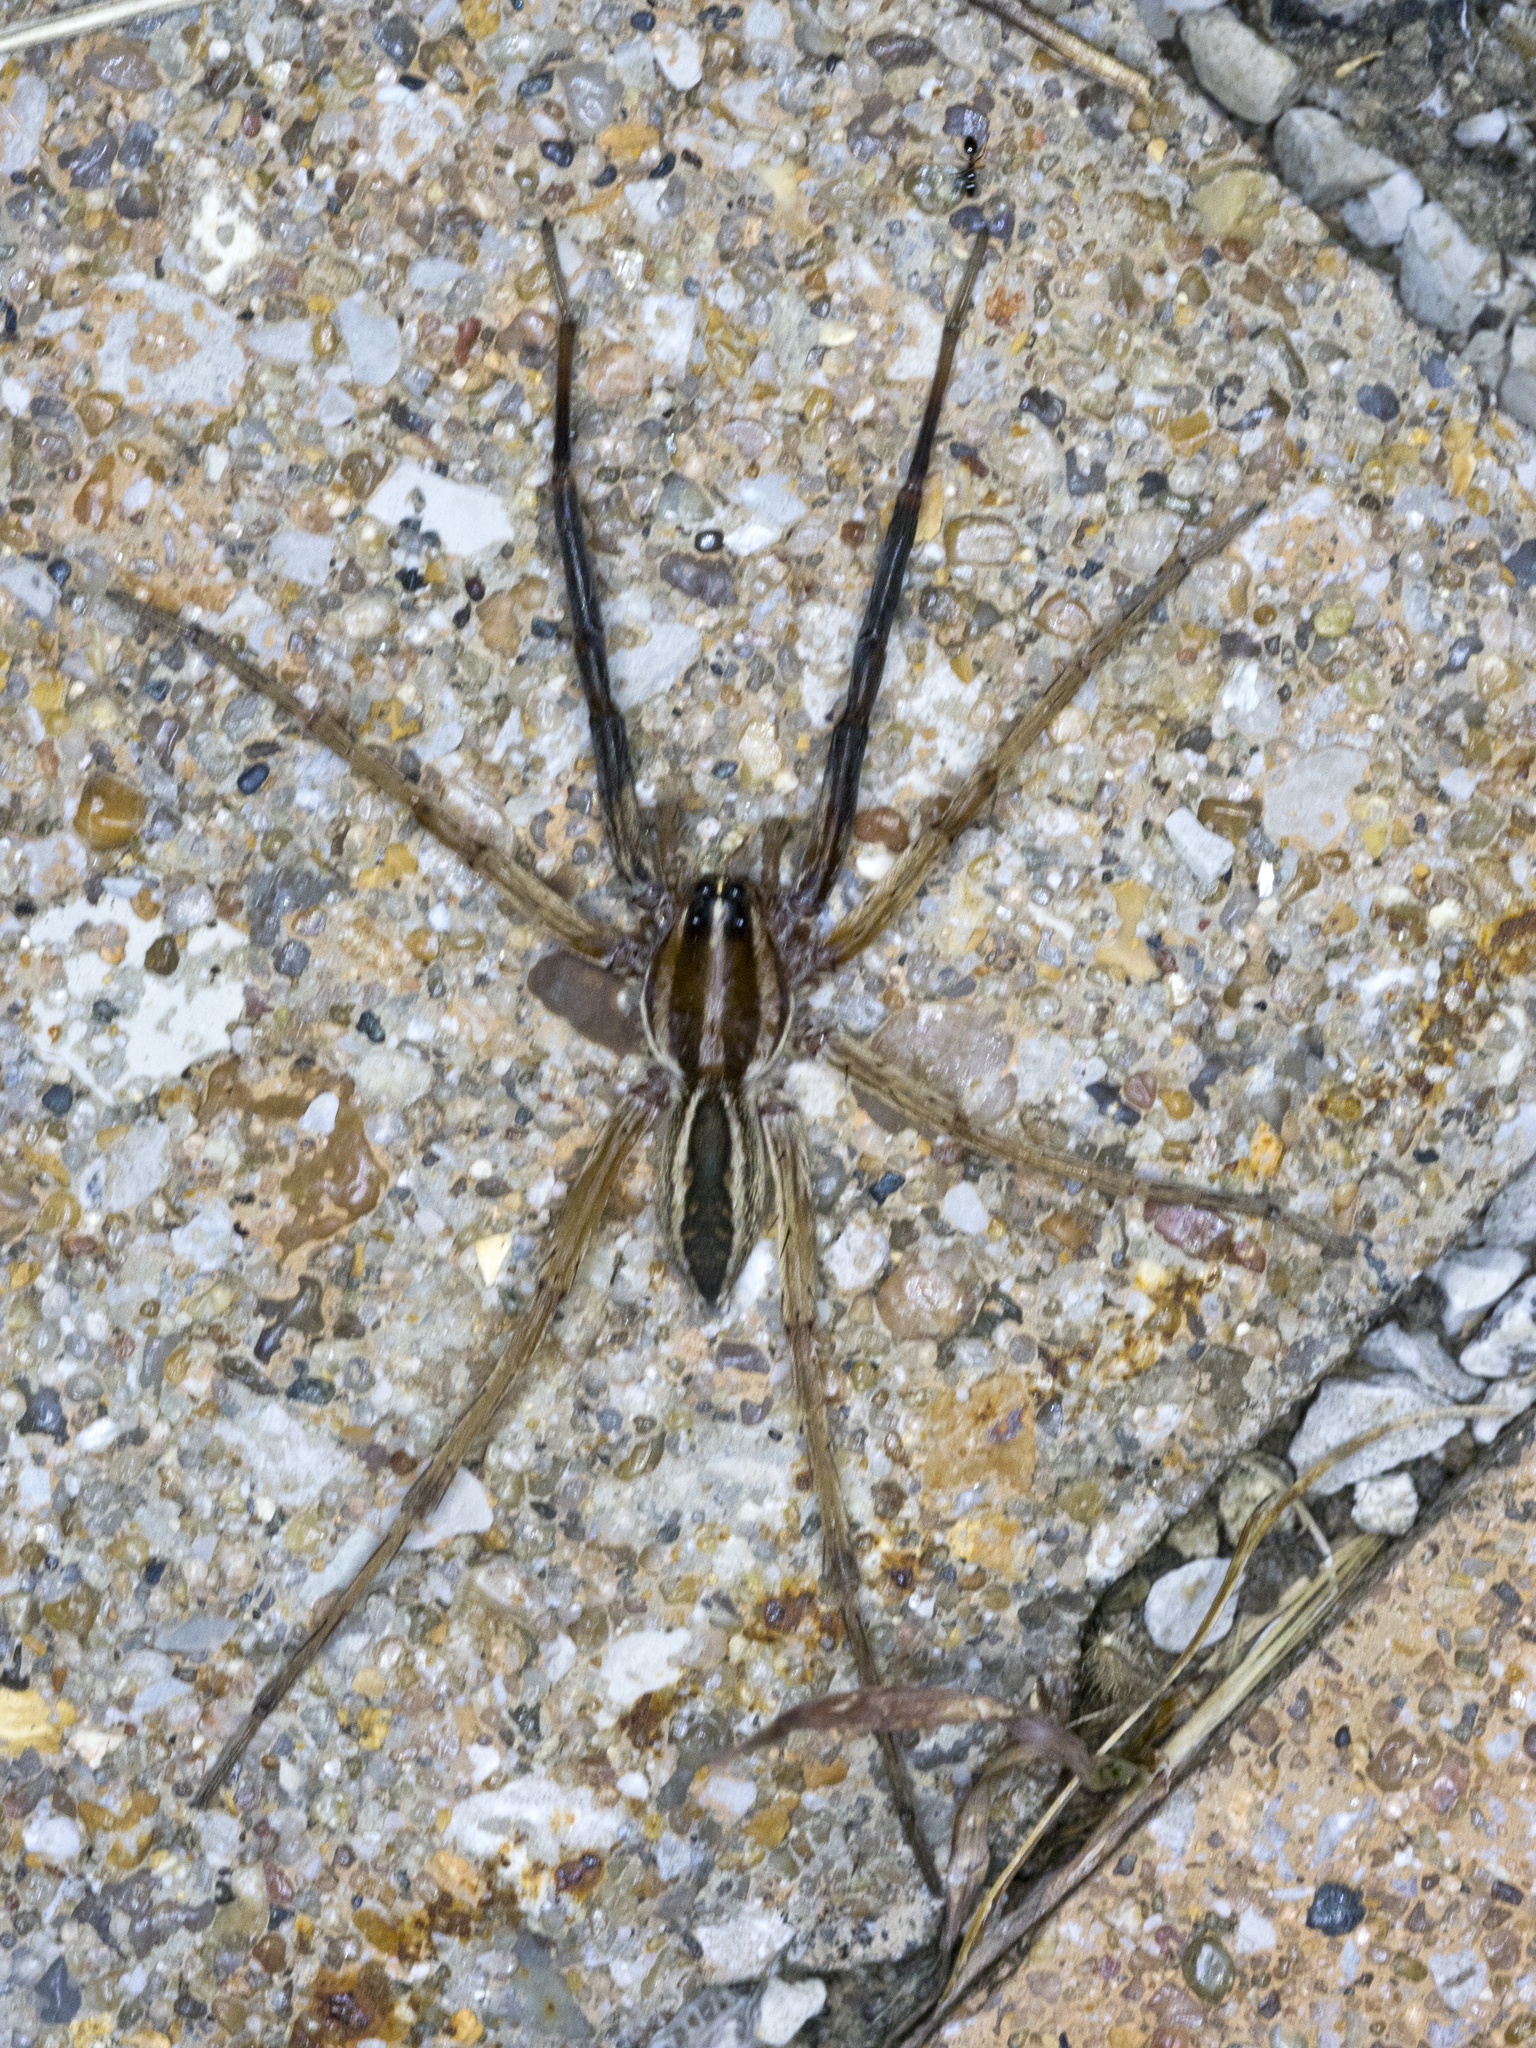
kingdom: Animalia
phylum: Arthropoda
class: Arachnida
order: Araneae
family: Lycosidae
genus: Rabidosa
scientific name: Rabidosa rabida
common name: Rabid wolf spider
